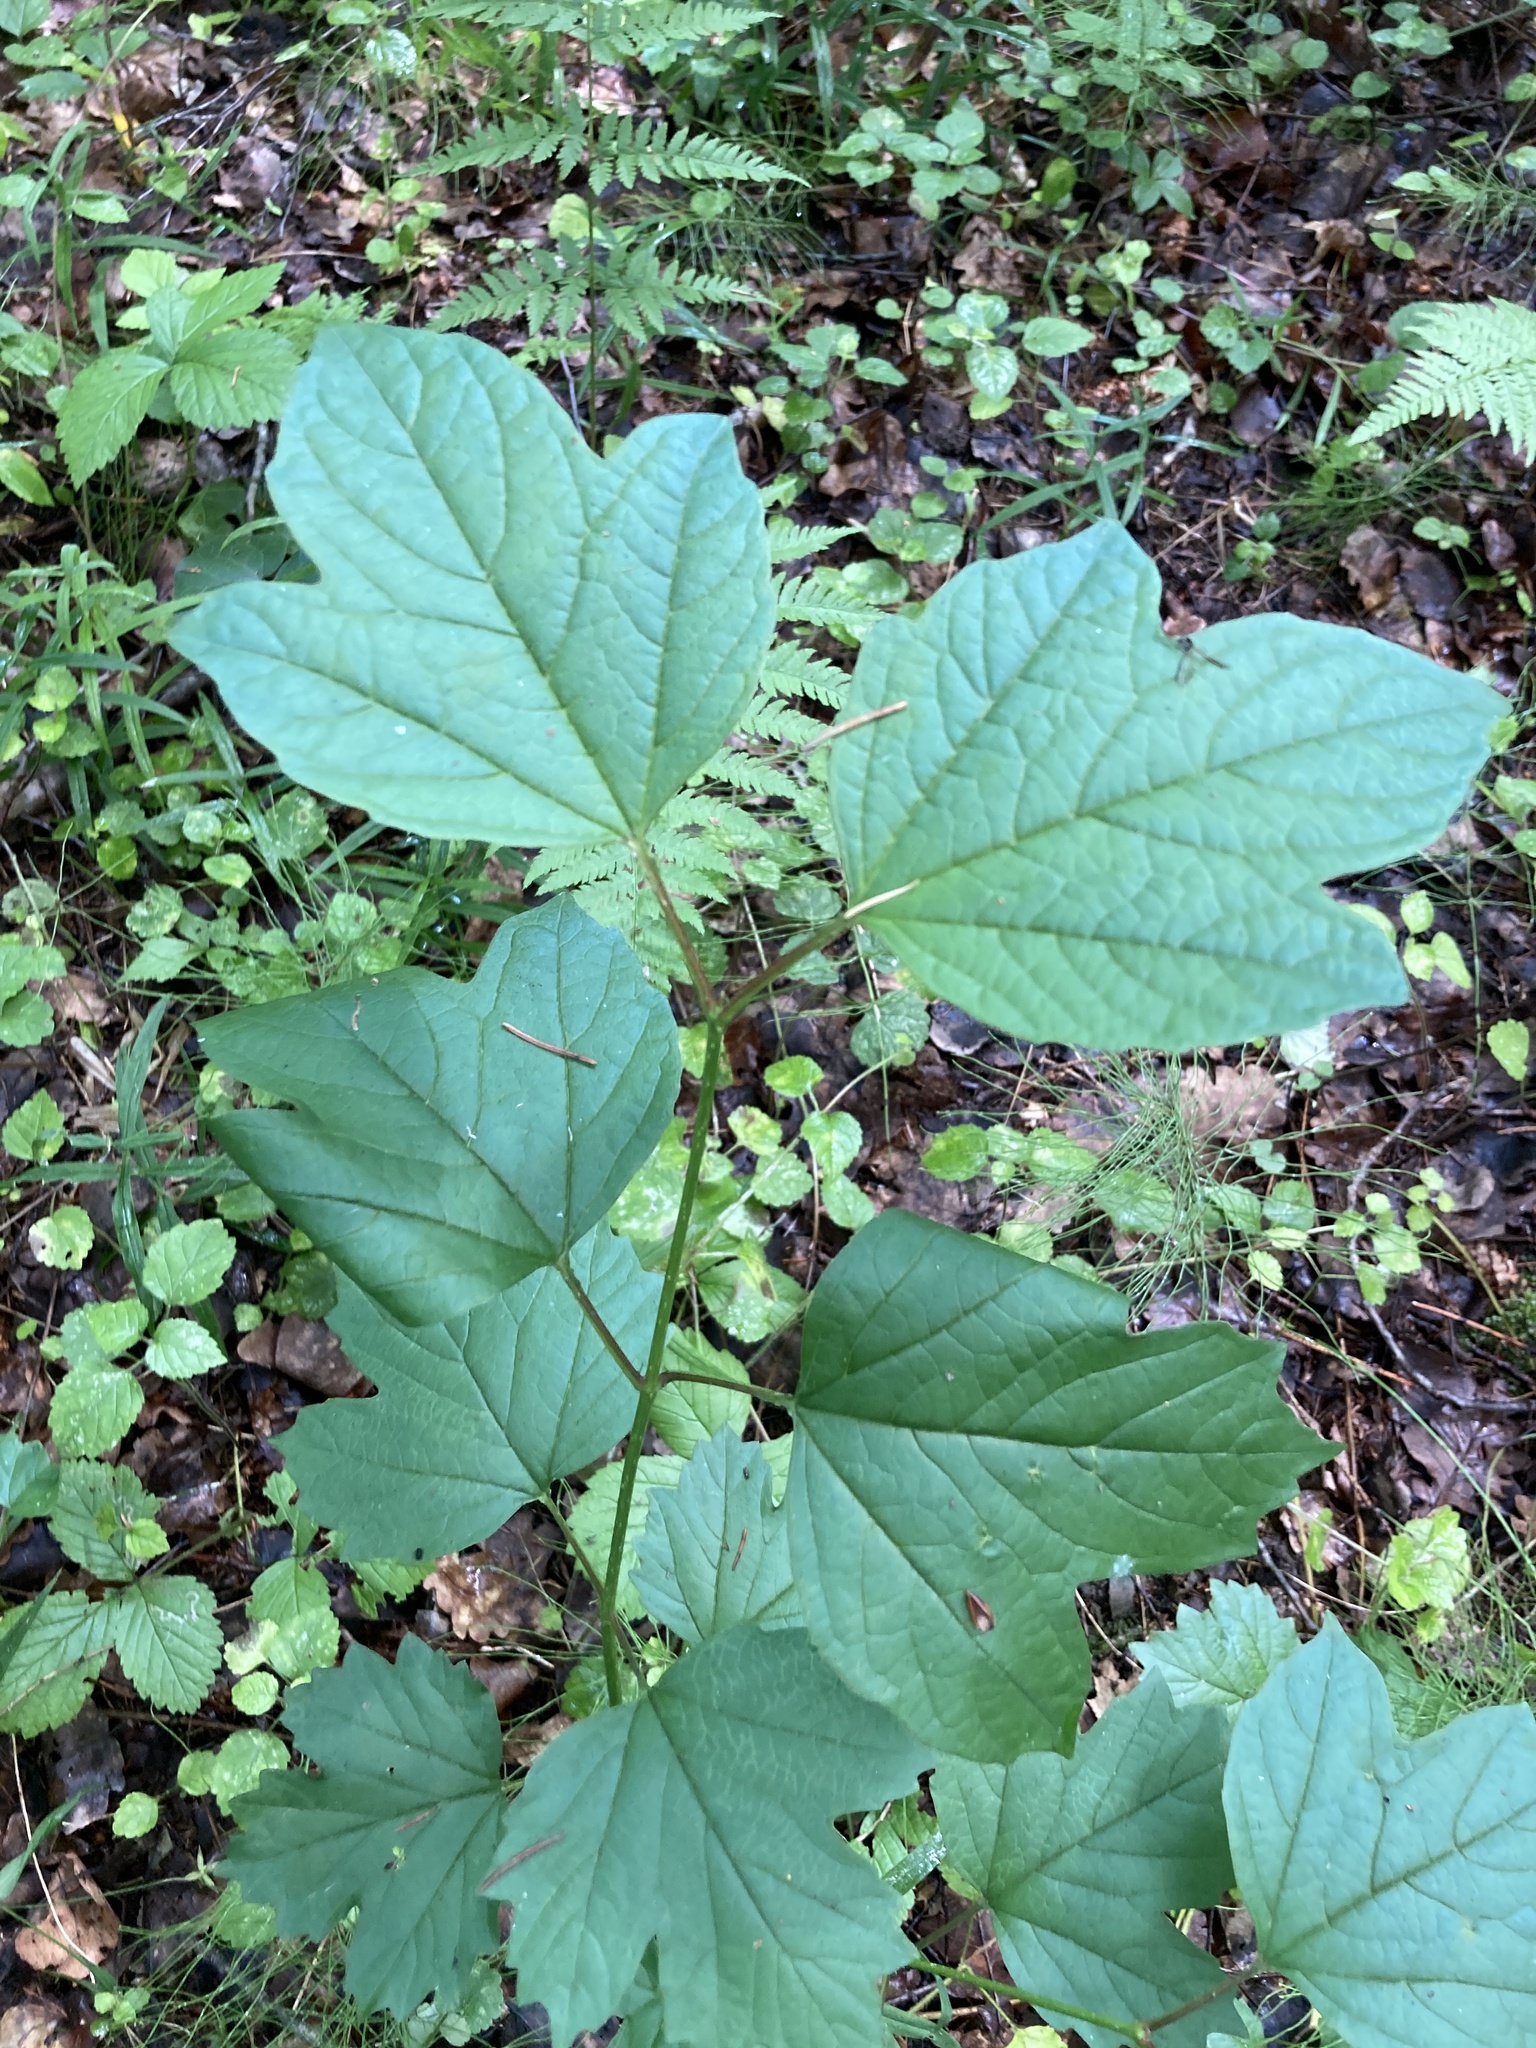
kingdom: Plantae
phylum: Tracheophyta
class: Magnoliopsida
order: Dipsacales
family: Viburnaceae
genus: Viburnum
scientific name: Viburnum opulus
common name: Guelder-rose
